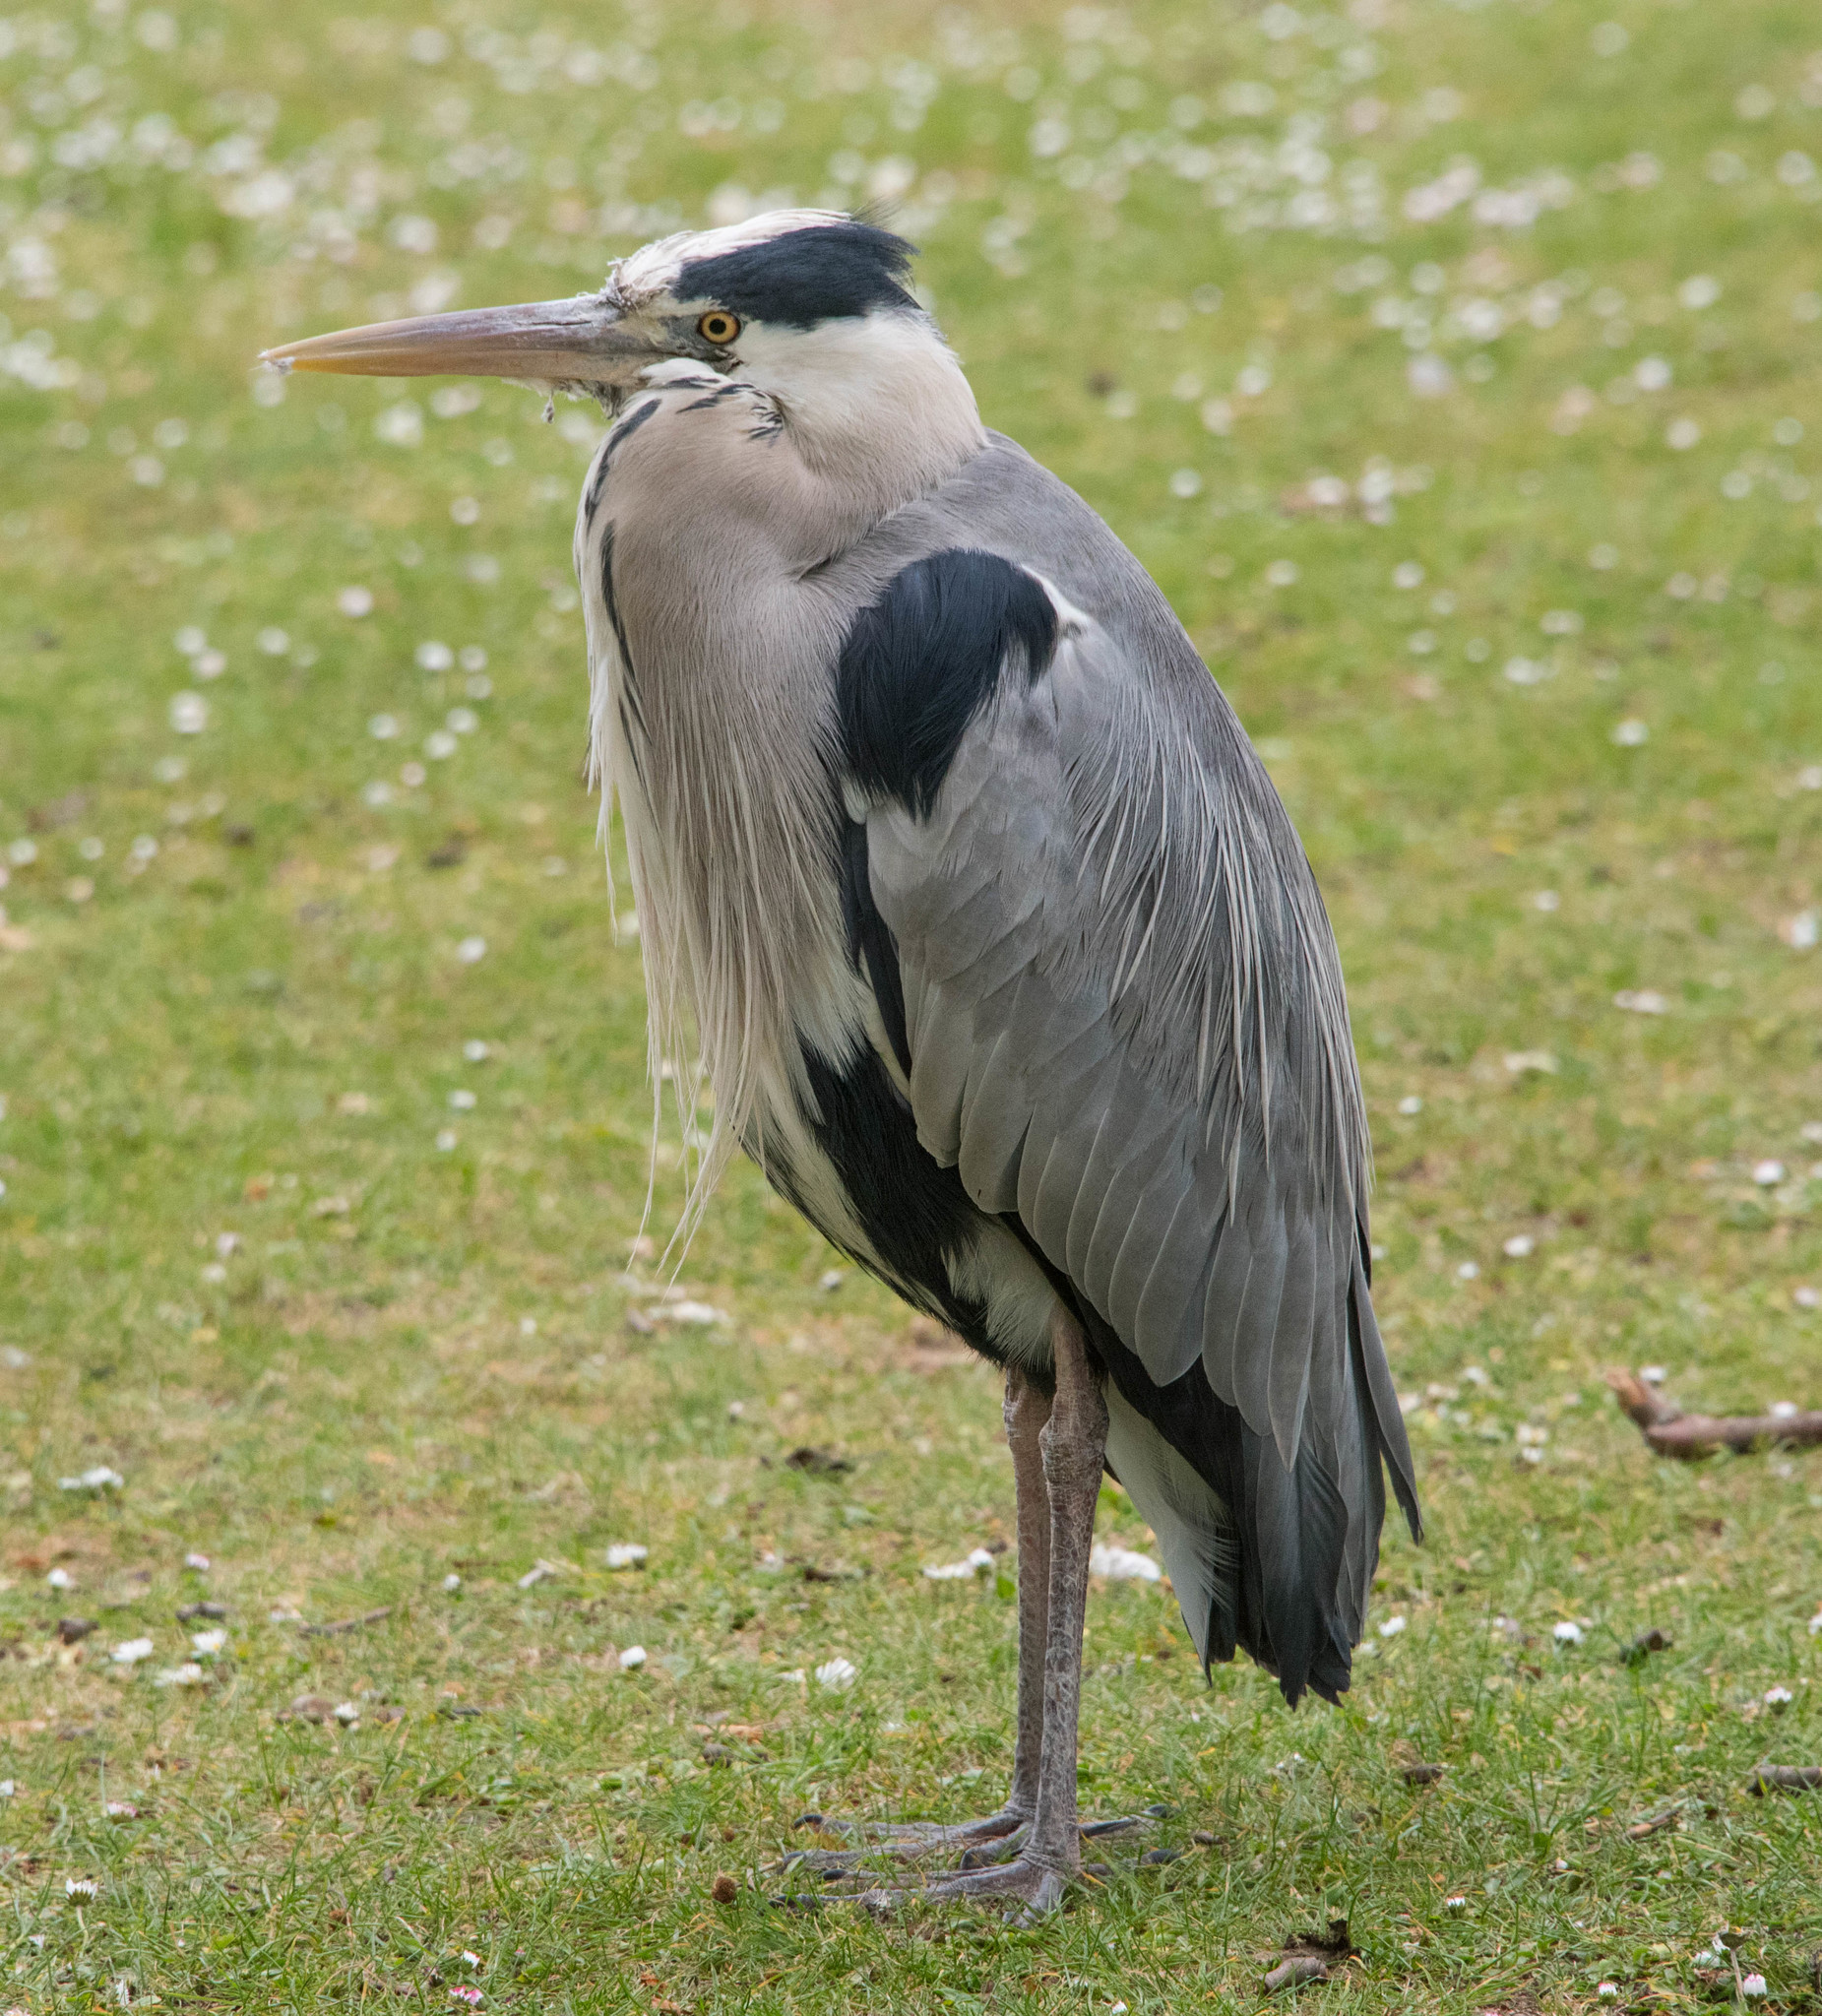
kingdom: Animalia
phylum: Chordata
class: Aves
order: Pelecaniformes
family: Ardeidae
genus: Ardea
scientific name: Ardea cinerea
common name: Grey heron
